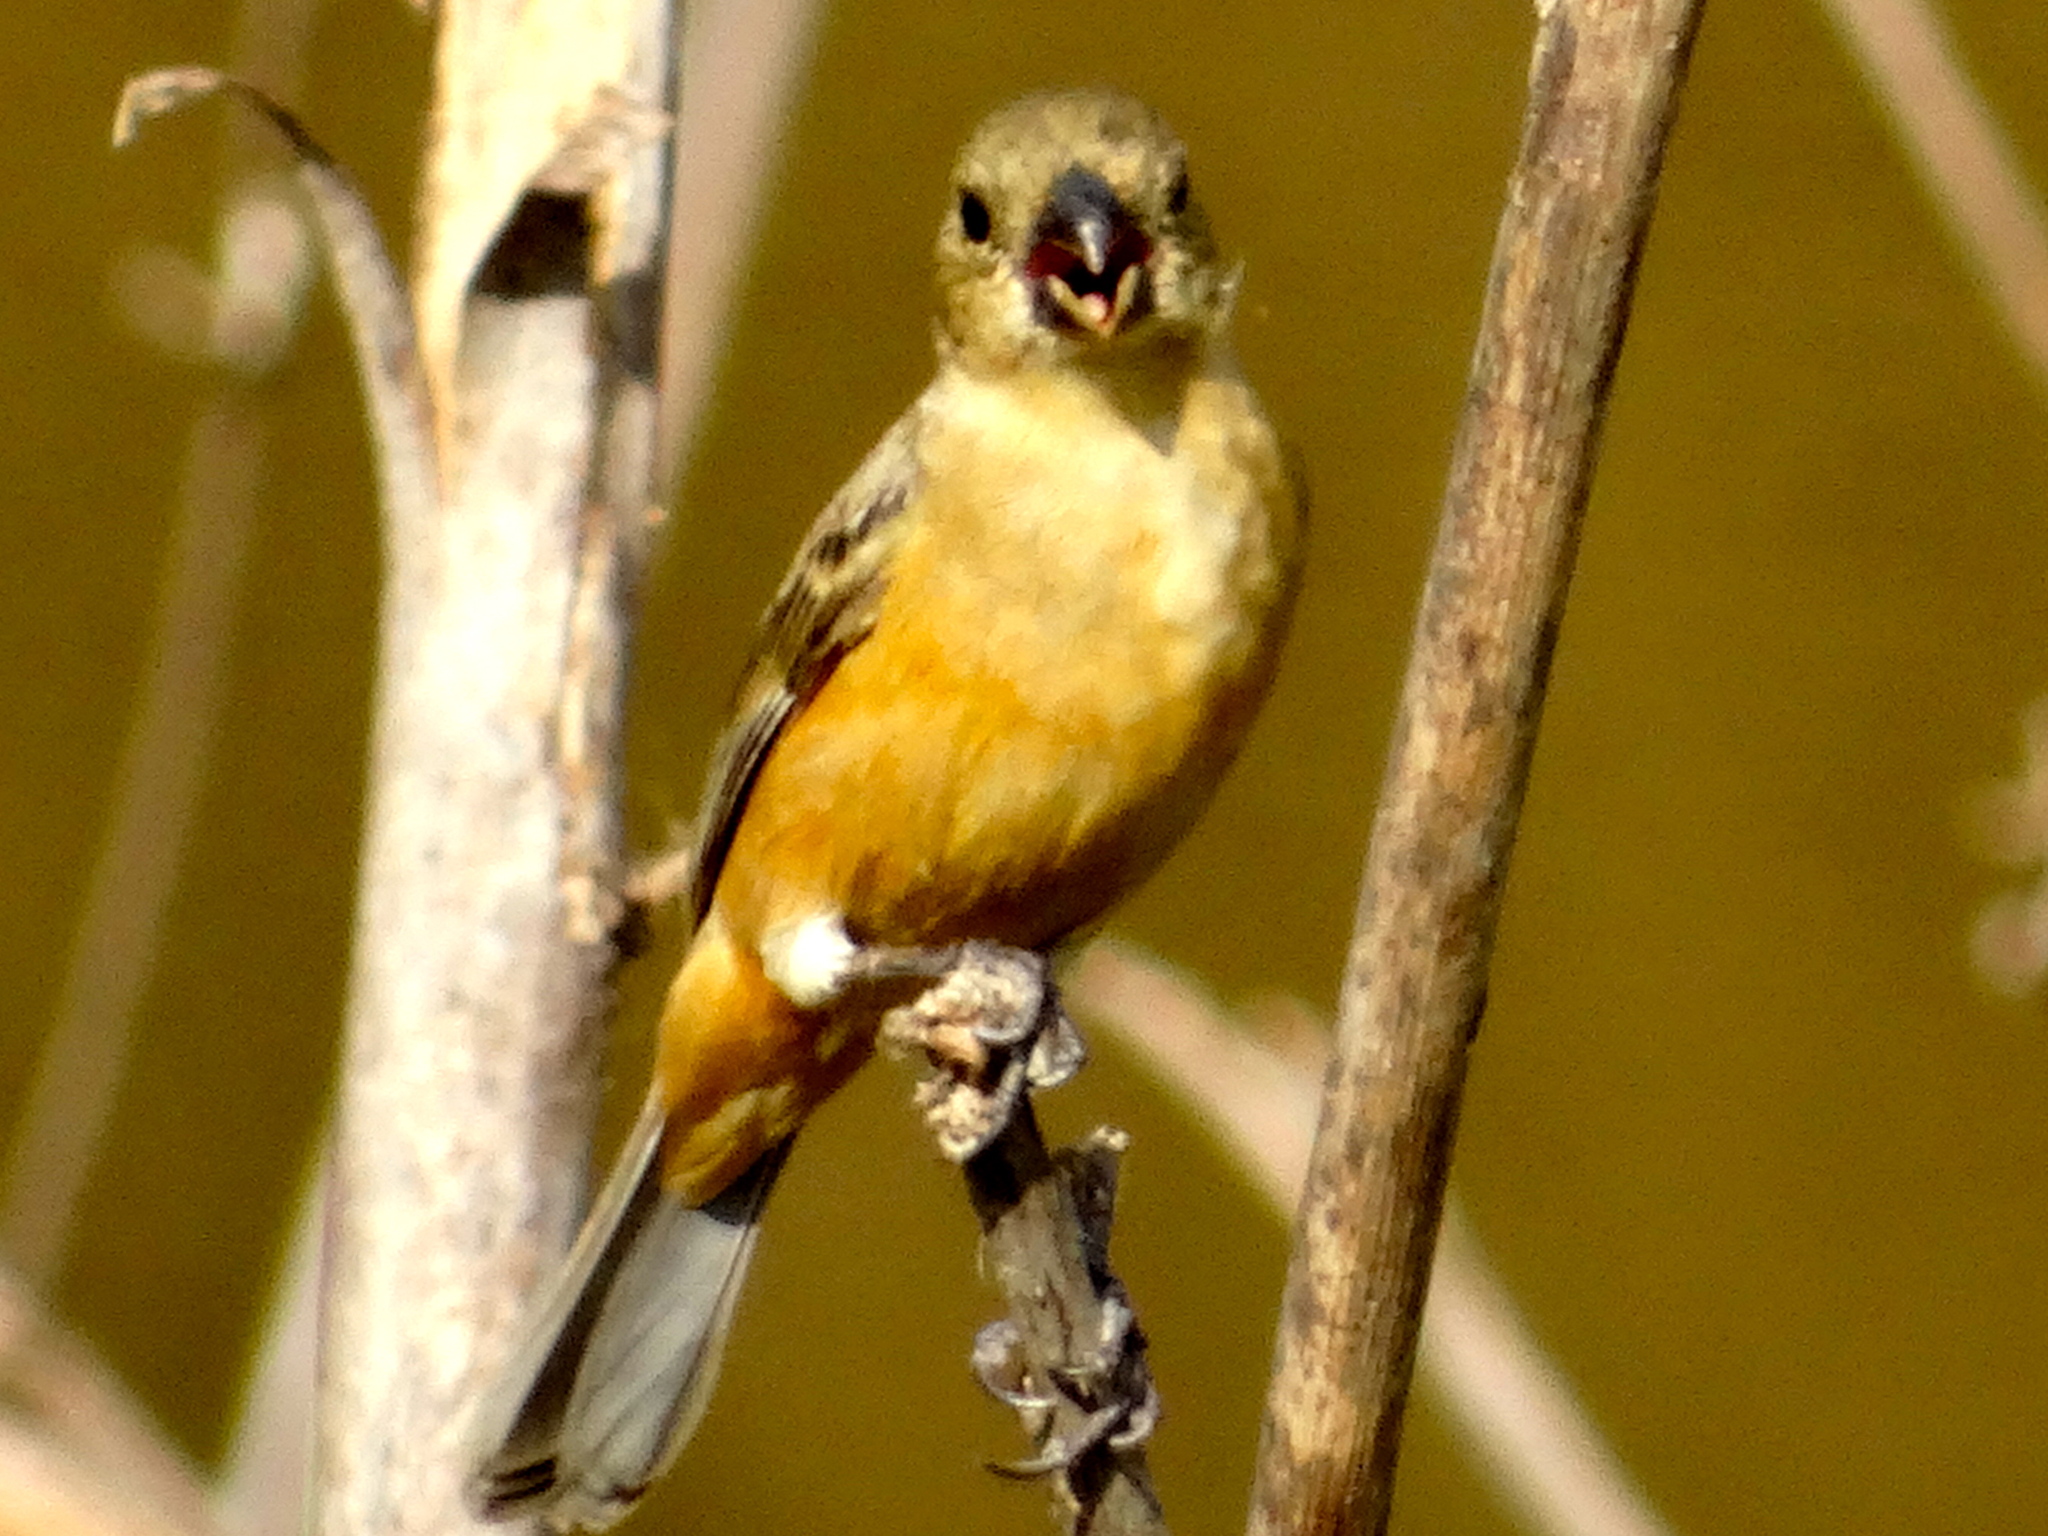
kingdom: Animalia
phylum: Chordata
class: Aves
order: Passeriformes
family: Thraupidae
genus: Sporophila
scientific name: Sporophila torqueola
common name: White-collared seedeater
